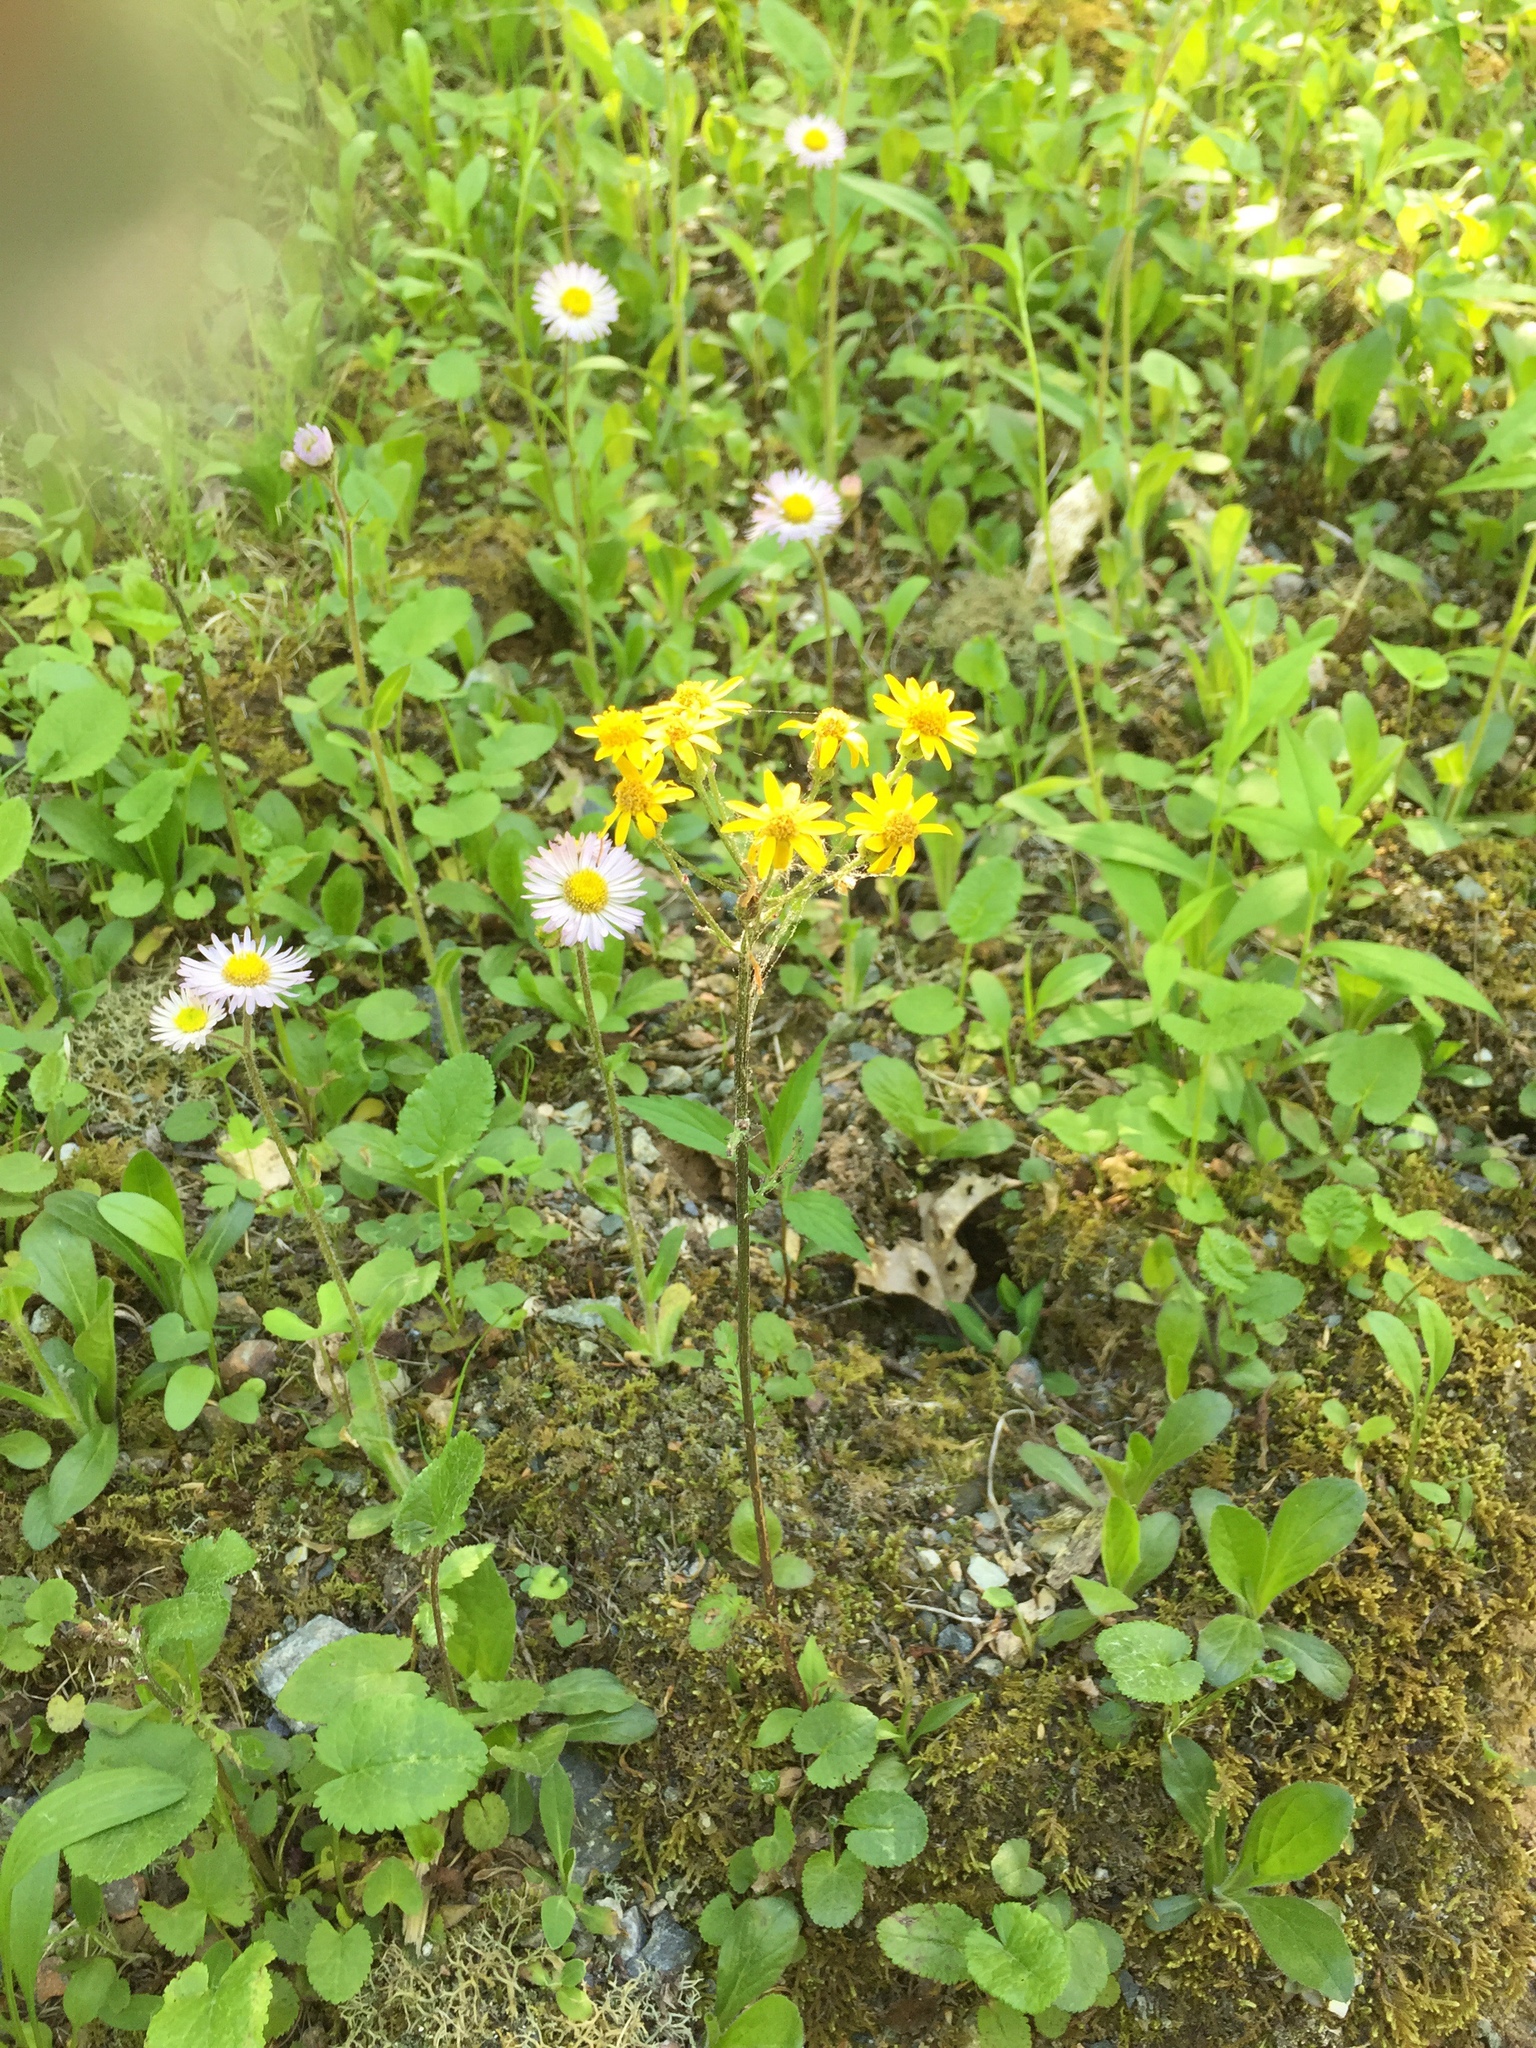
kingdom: Plantae
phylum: Tracheophyta
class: Magnoliopsida
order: Asterales
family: Asteraceae
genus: Packera
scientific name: Packera aurea
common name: Golden groundsel
